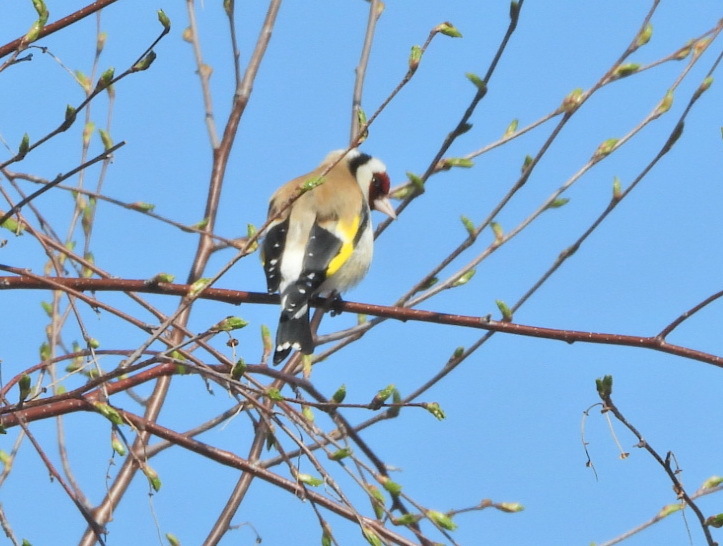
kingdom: Animalia
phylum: Chordata
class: Aves
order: Passeriformes
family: Fringillidae
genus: Carduelis
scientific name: Carduelis carduelis
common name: European goldfinch
